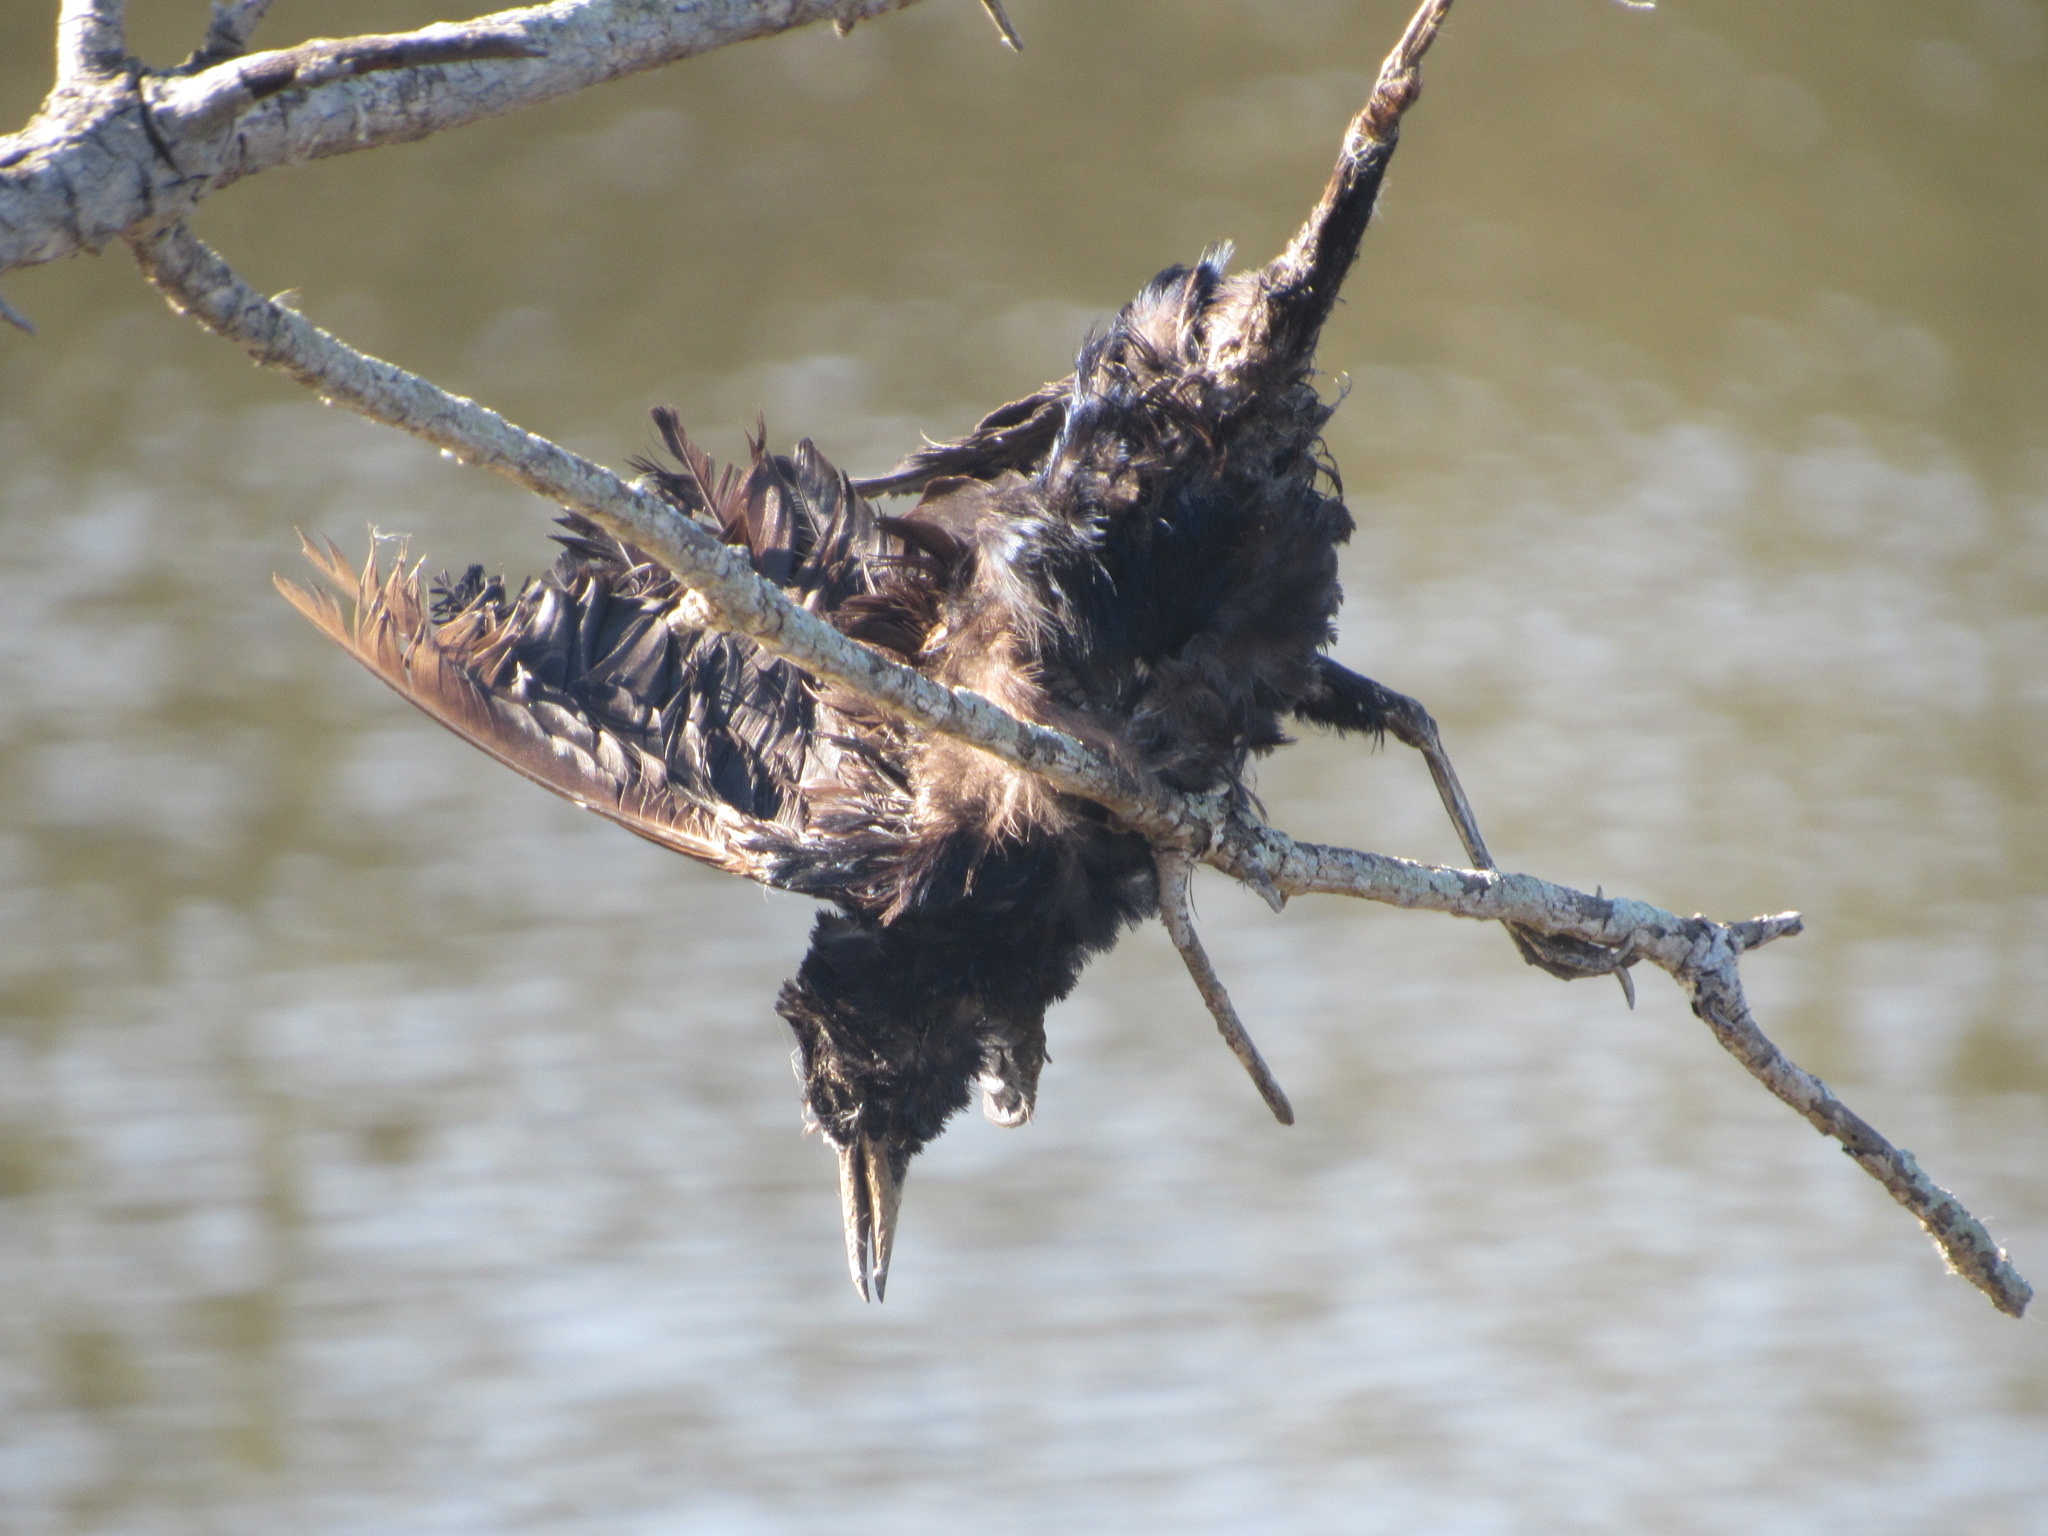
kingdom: Animalia
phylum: Chordata
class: Aves
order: Passeriformes
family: Icteridae
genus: Quiscalus
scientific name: Quiscalus mexicanus
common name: Great-tailed grackle
